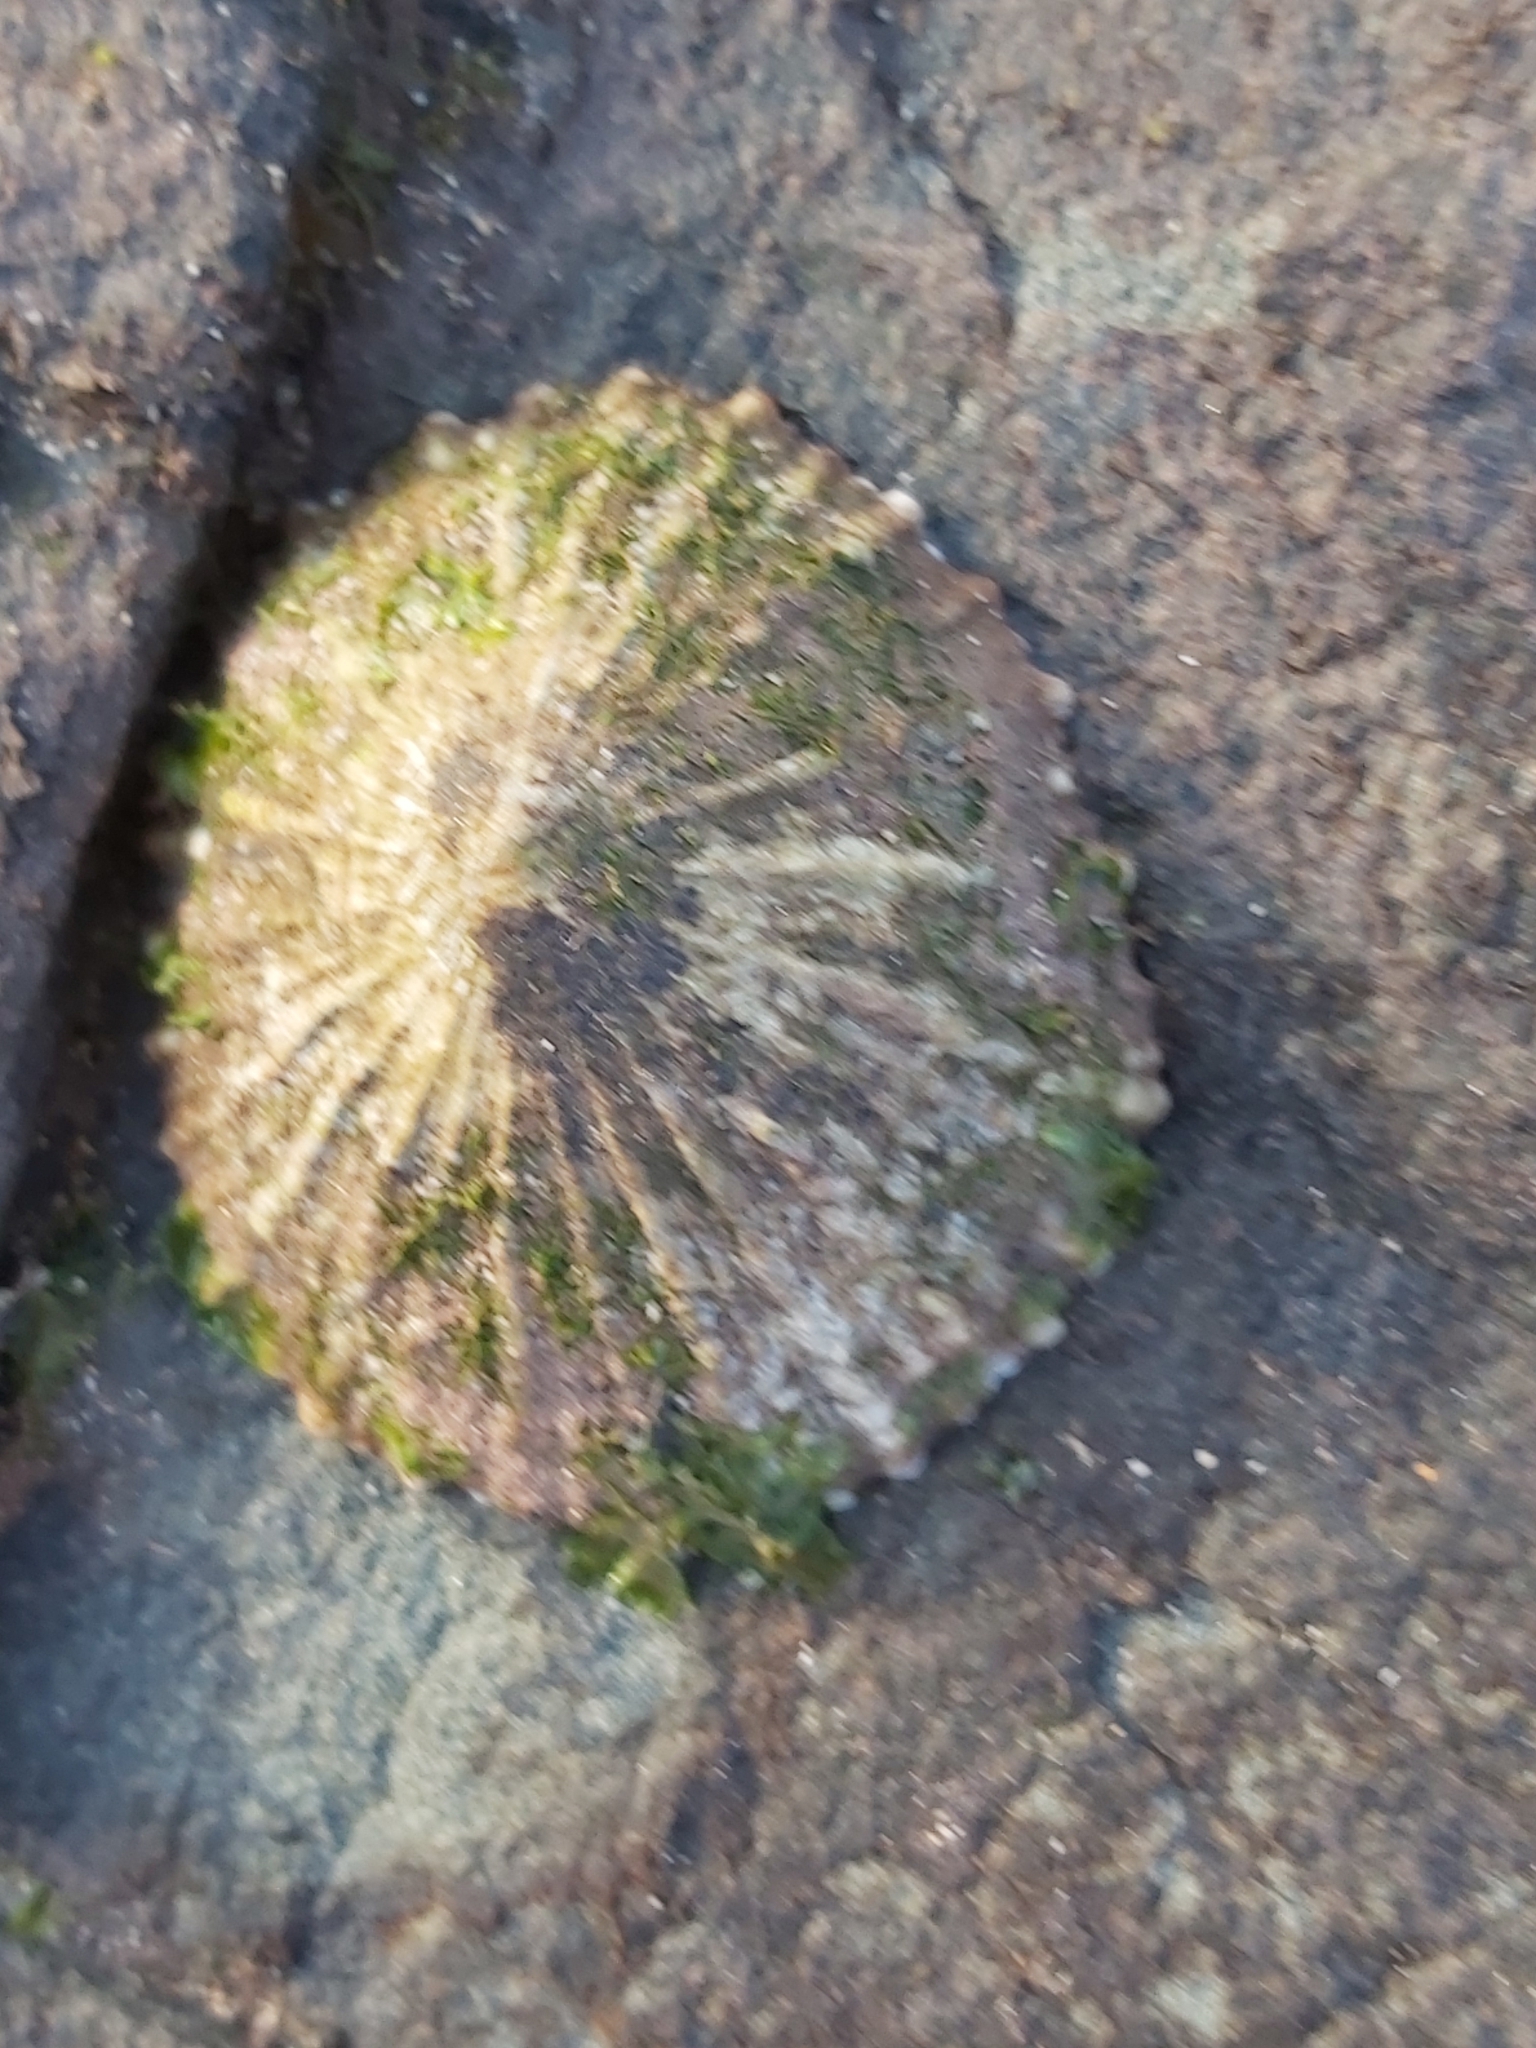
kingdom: Animalia
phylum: Mollusca
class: Gastropoda
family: Patellidae
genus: Scutellastra
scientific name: Scutellastra peronii
